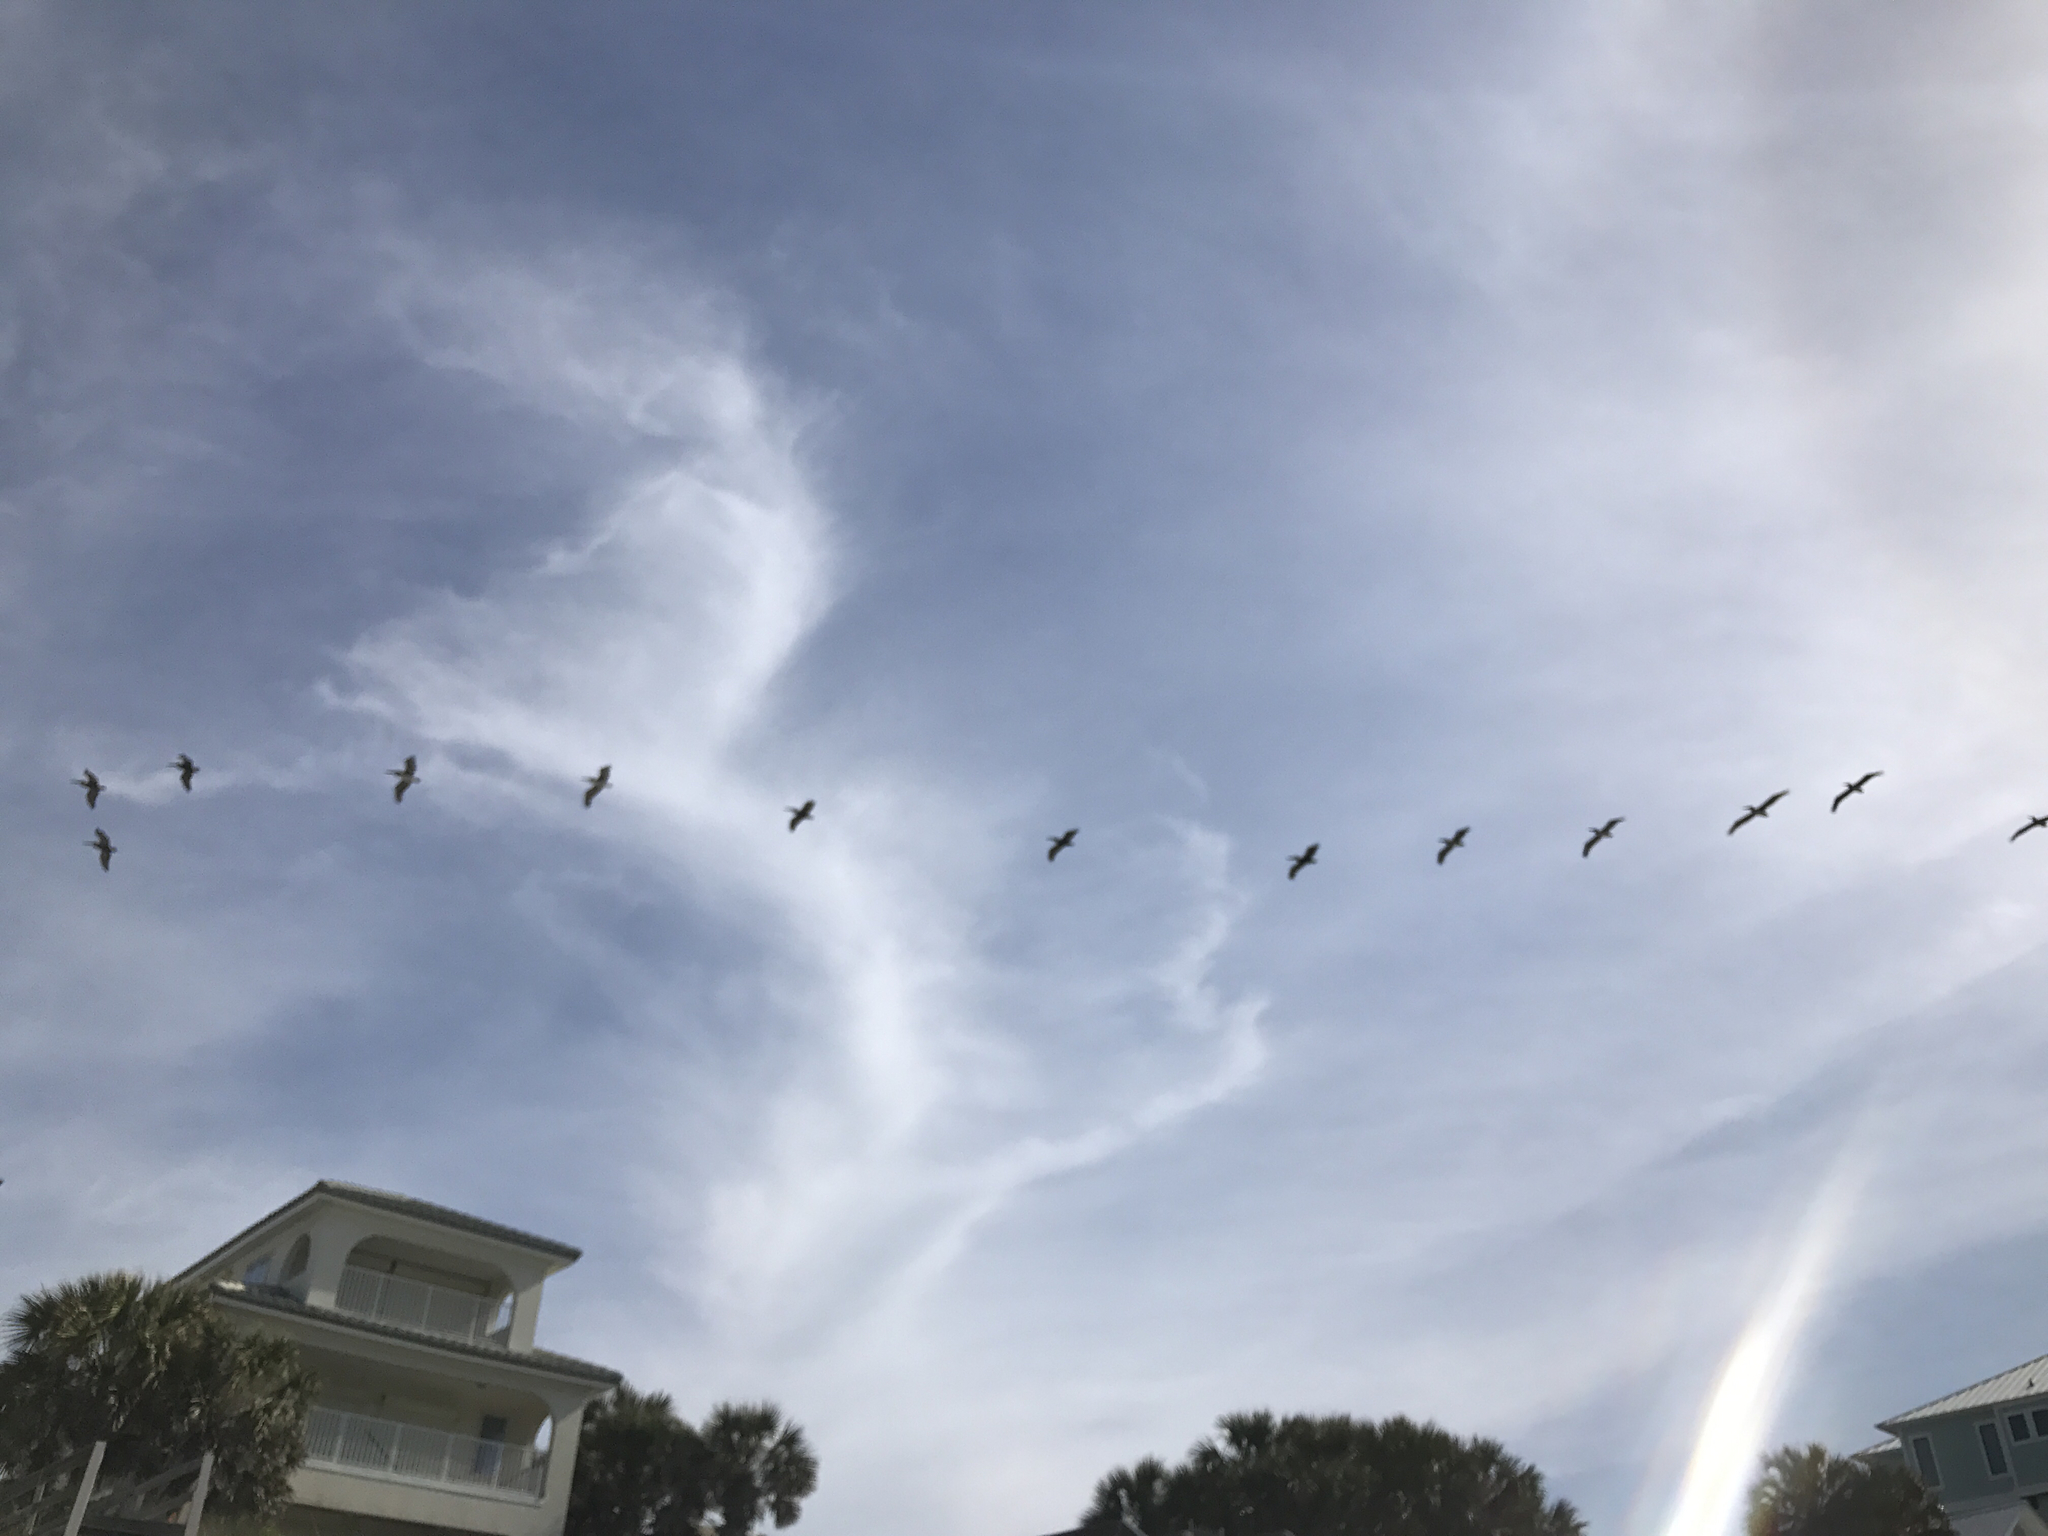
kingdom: Animalia
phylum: Chordata
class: Aves
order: Pelecaniformes
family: Pelecanidae
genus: Pelecanus
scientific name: Pelecanus occidentalis
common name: Brown pelican
